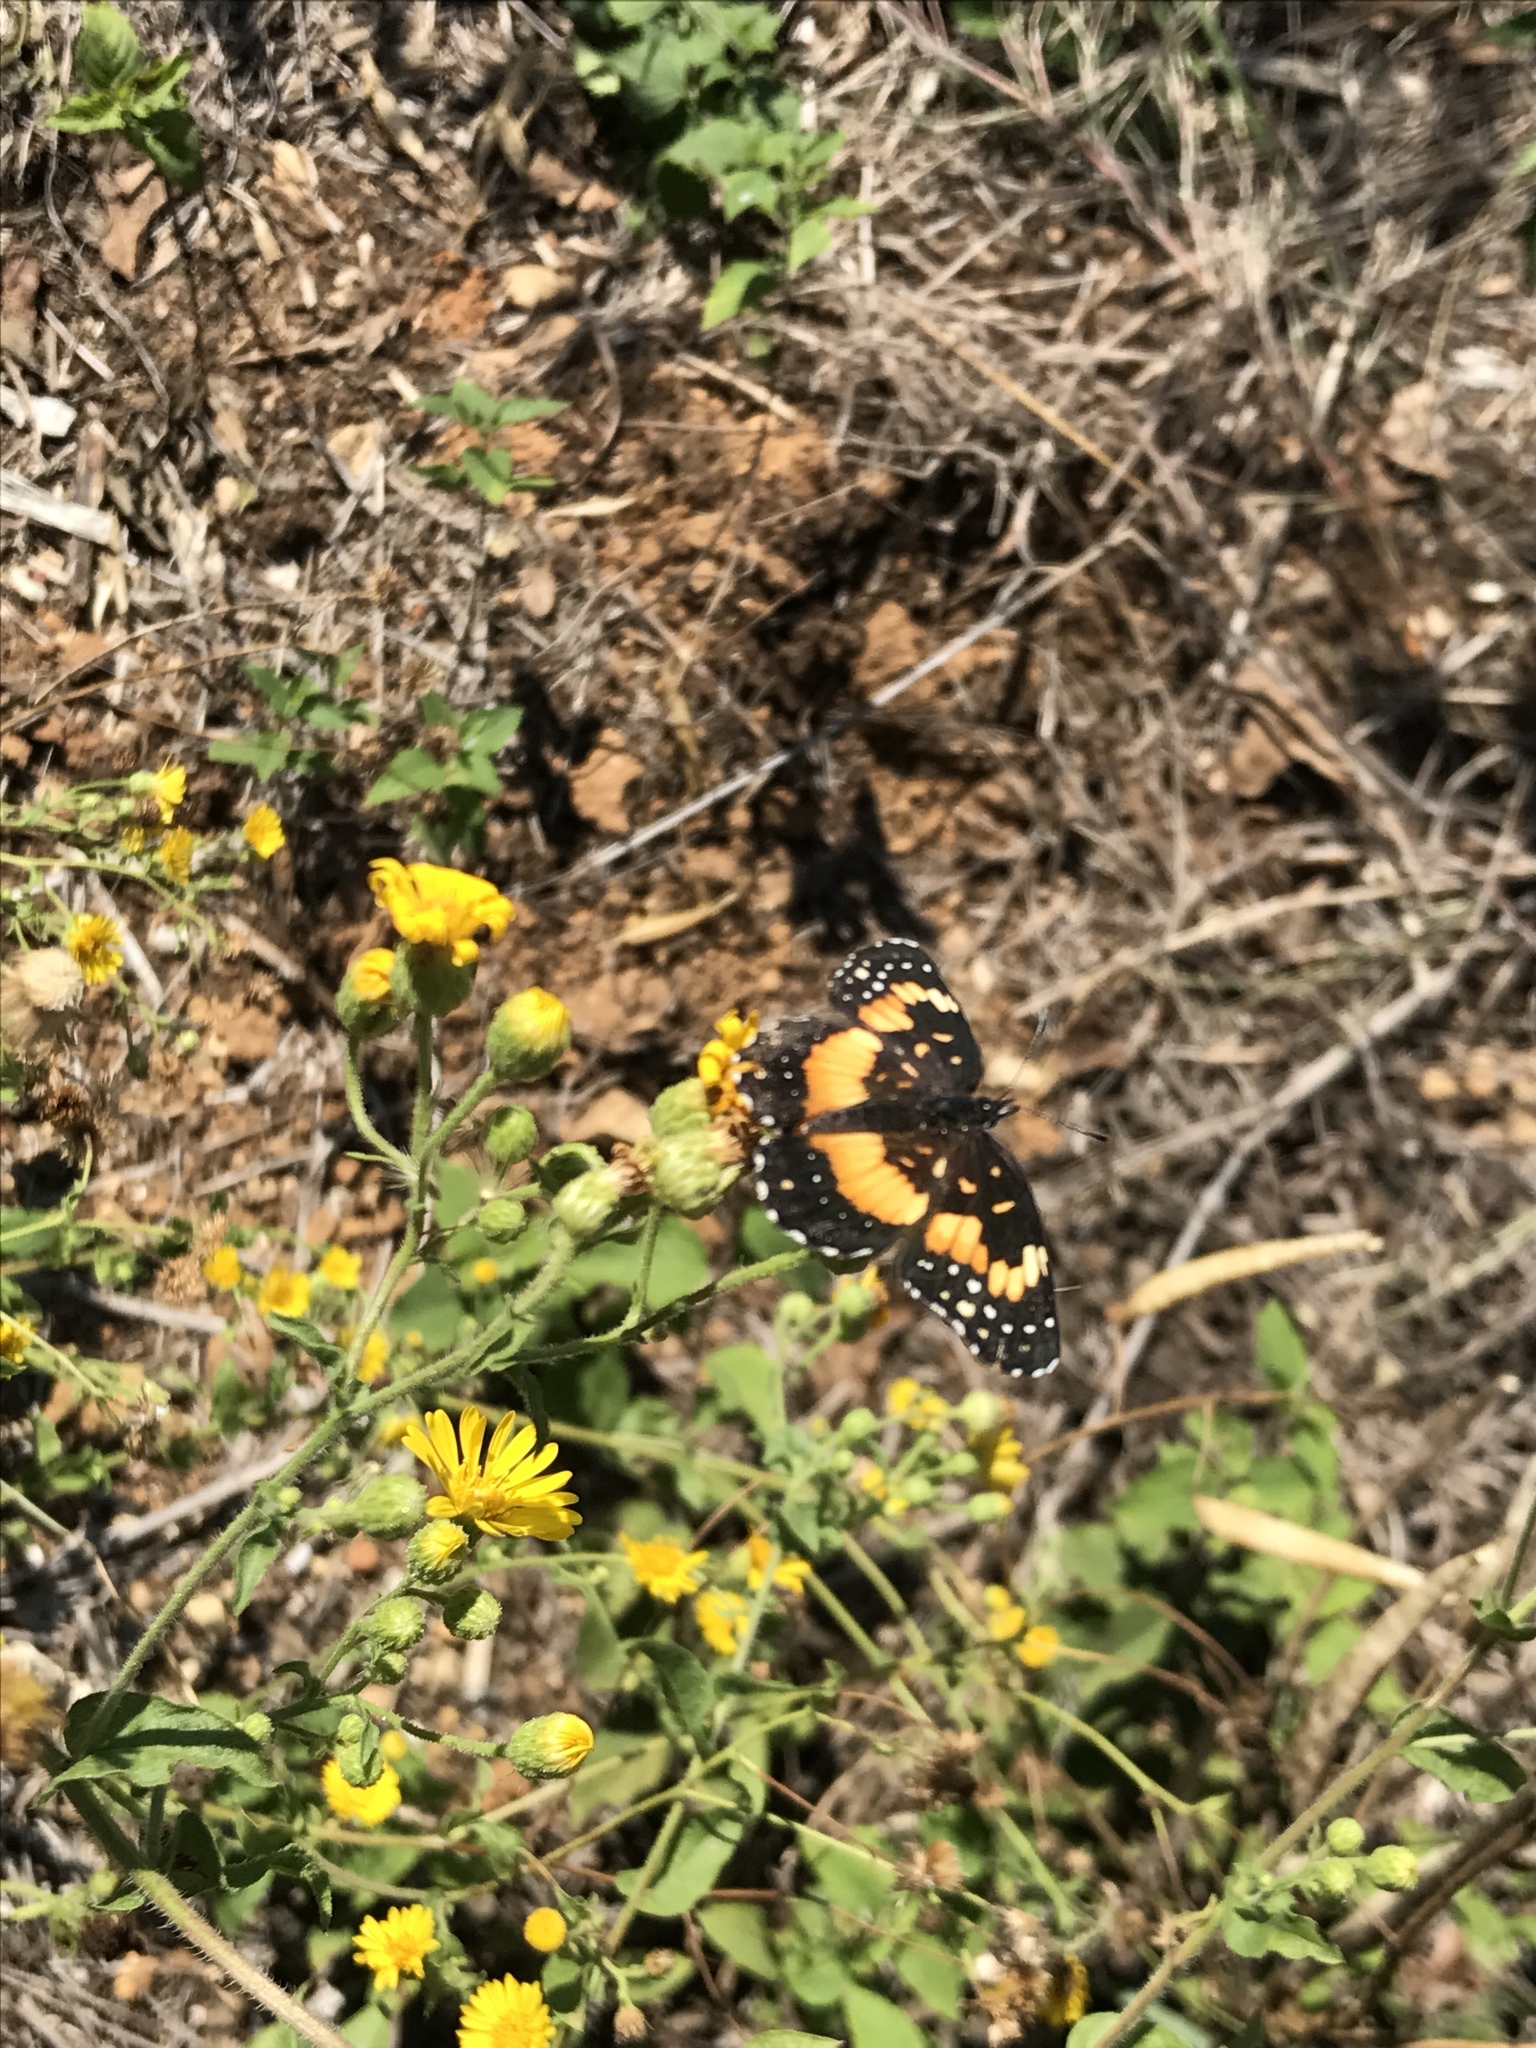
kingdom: Animalia
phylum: Arthropoda
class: Insecta
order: Lepidoptera
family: Nymphalidae
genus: Chlosyne
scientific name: Chlosyne lacinia
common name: Bordered patch
